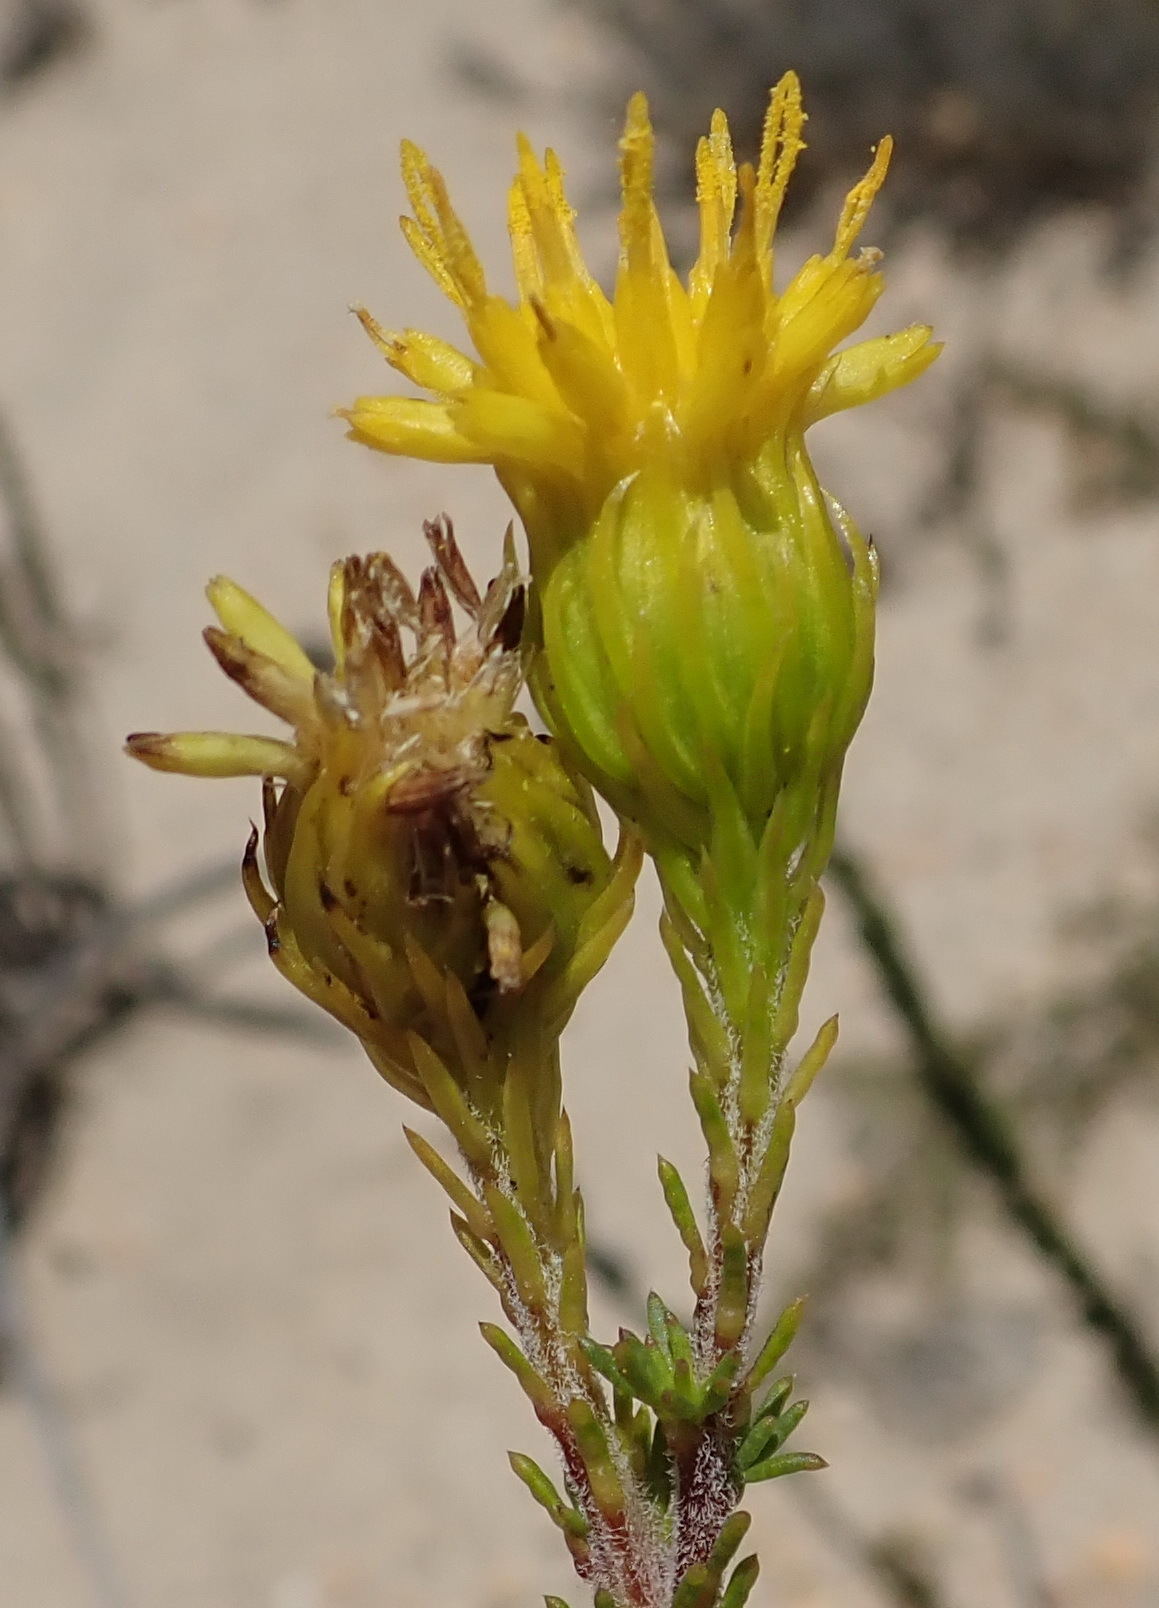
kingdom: Plantae
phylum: Tracheophyta
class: Magnoliopsida
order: Asterales
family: Asteraceae
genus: Pteronia
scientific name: Pteronia camphorata
